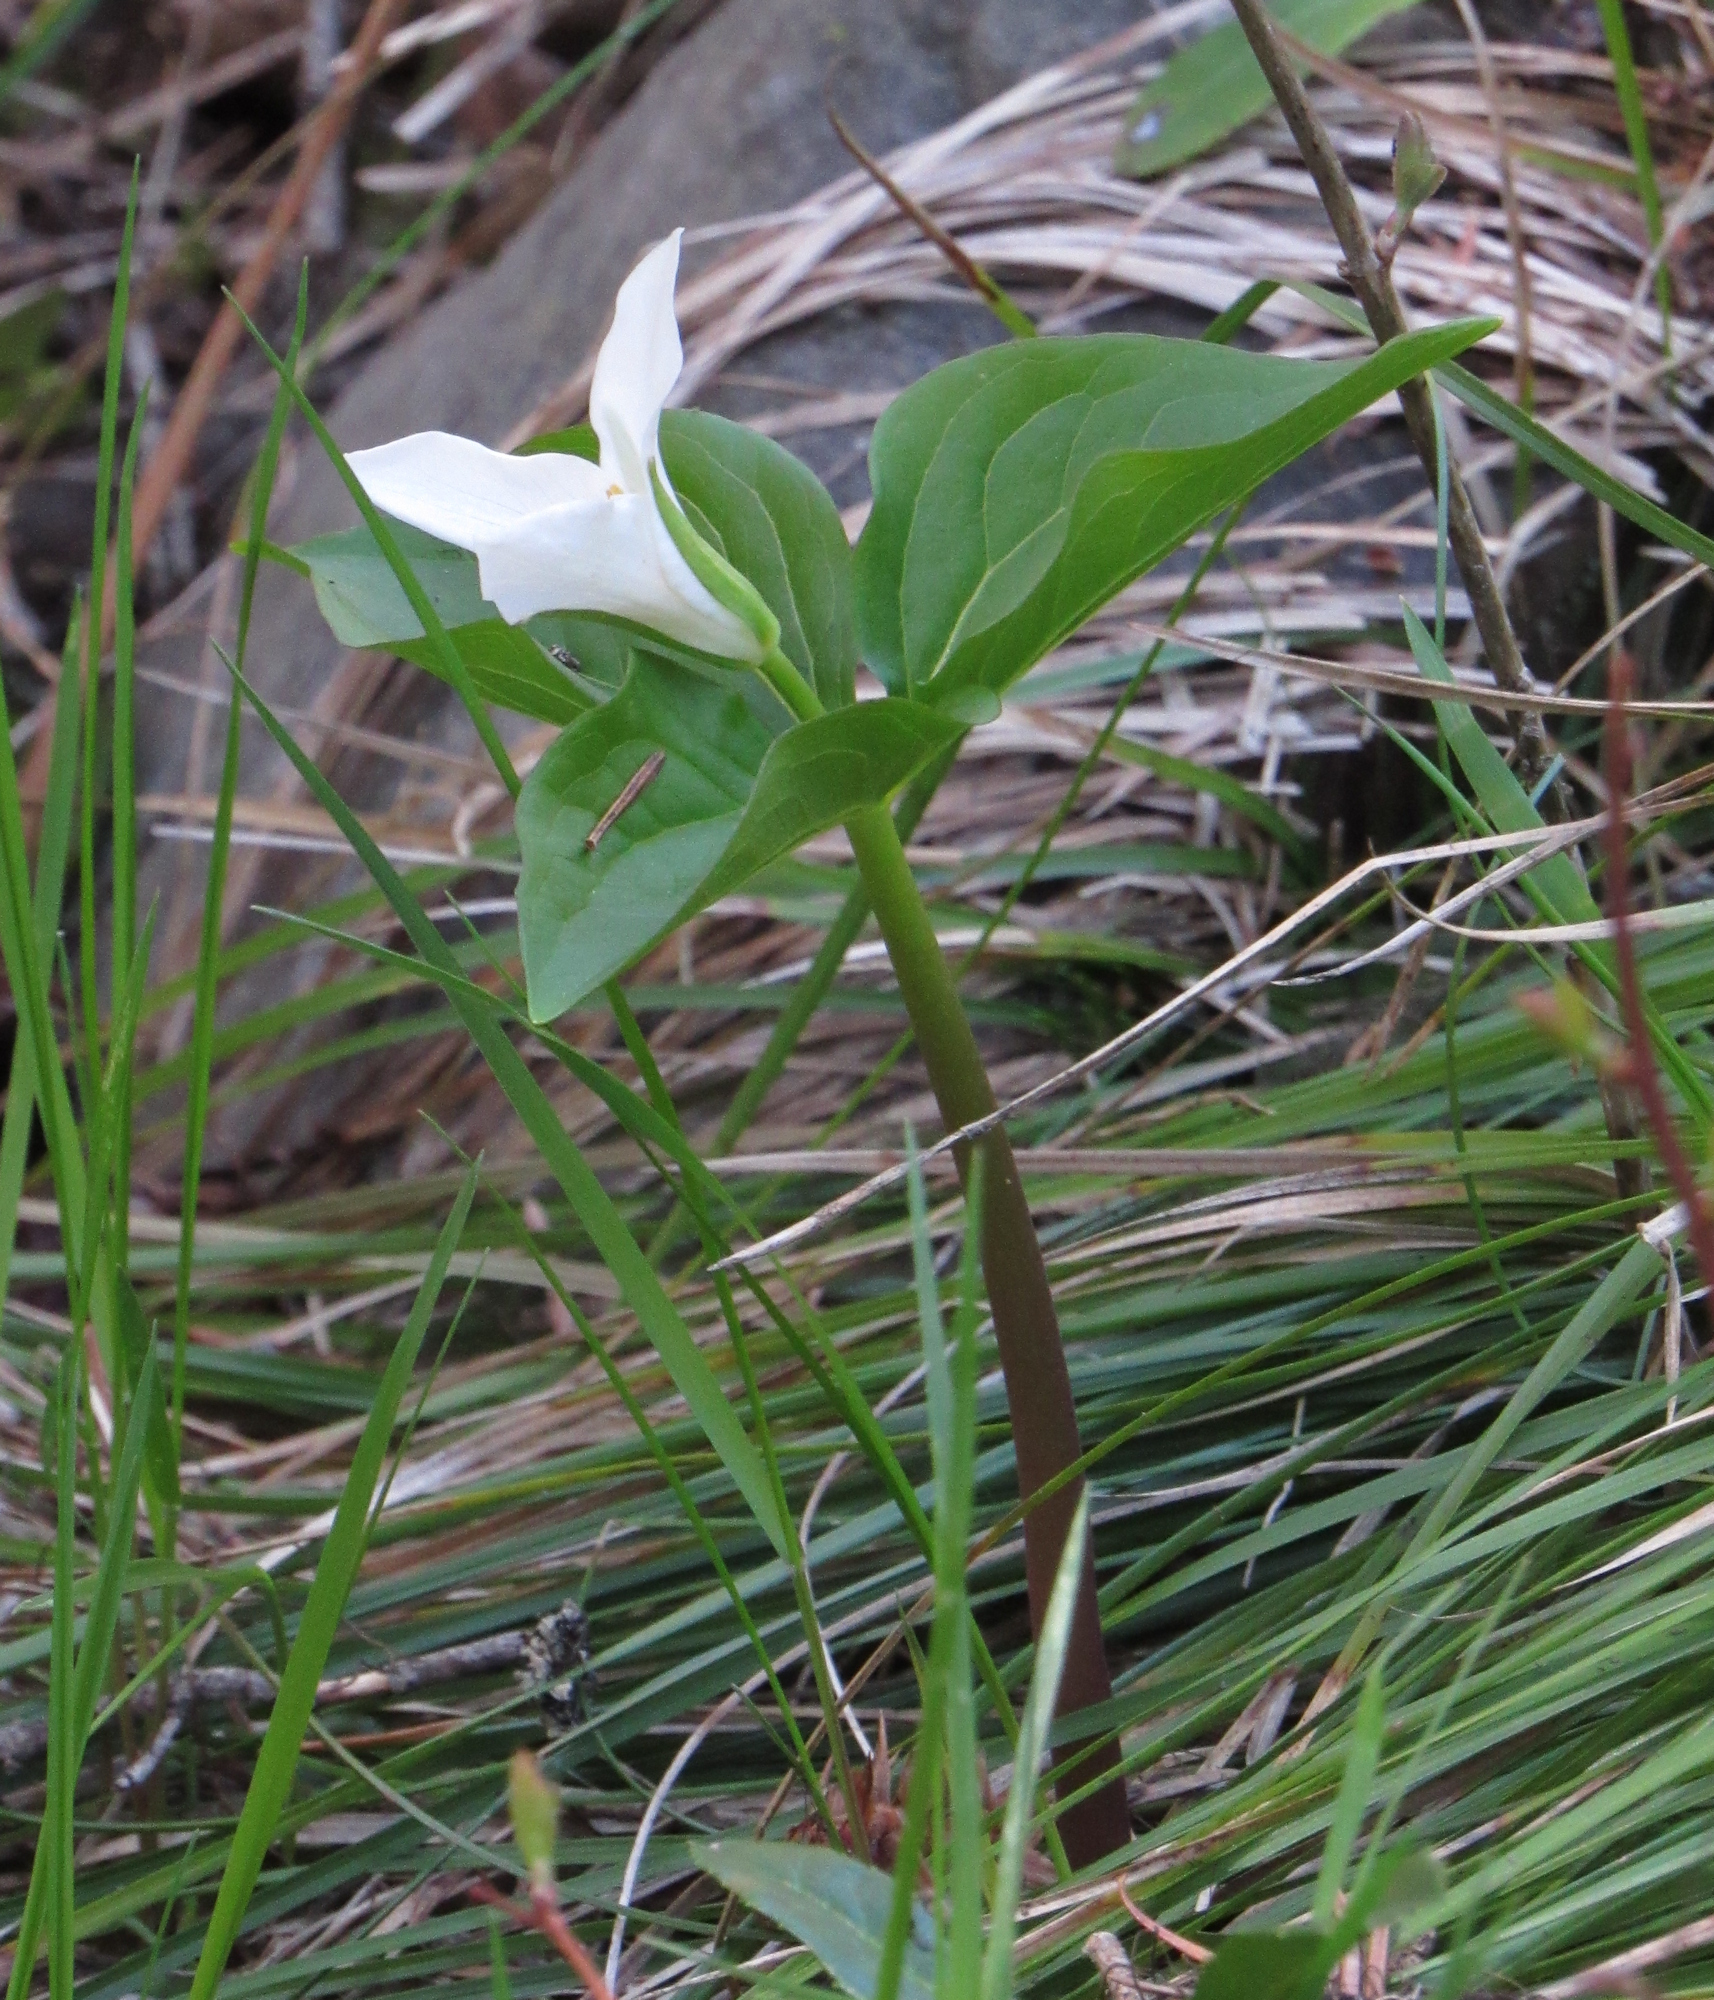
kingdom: Plantae
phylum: Tracheophyta
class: Liliopsida
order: Liliales
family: Melanthiaceae
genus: Trillium
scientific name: Trillium ovatum
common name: Pacific trillium
